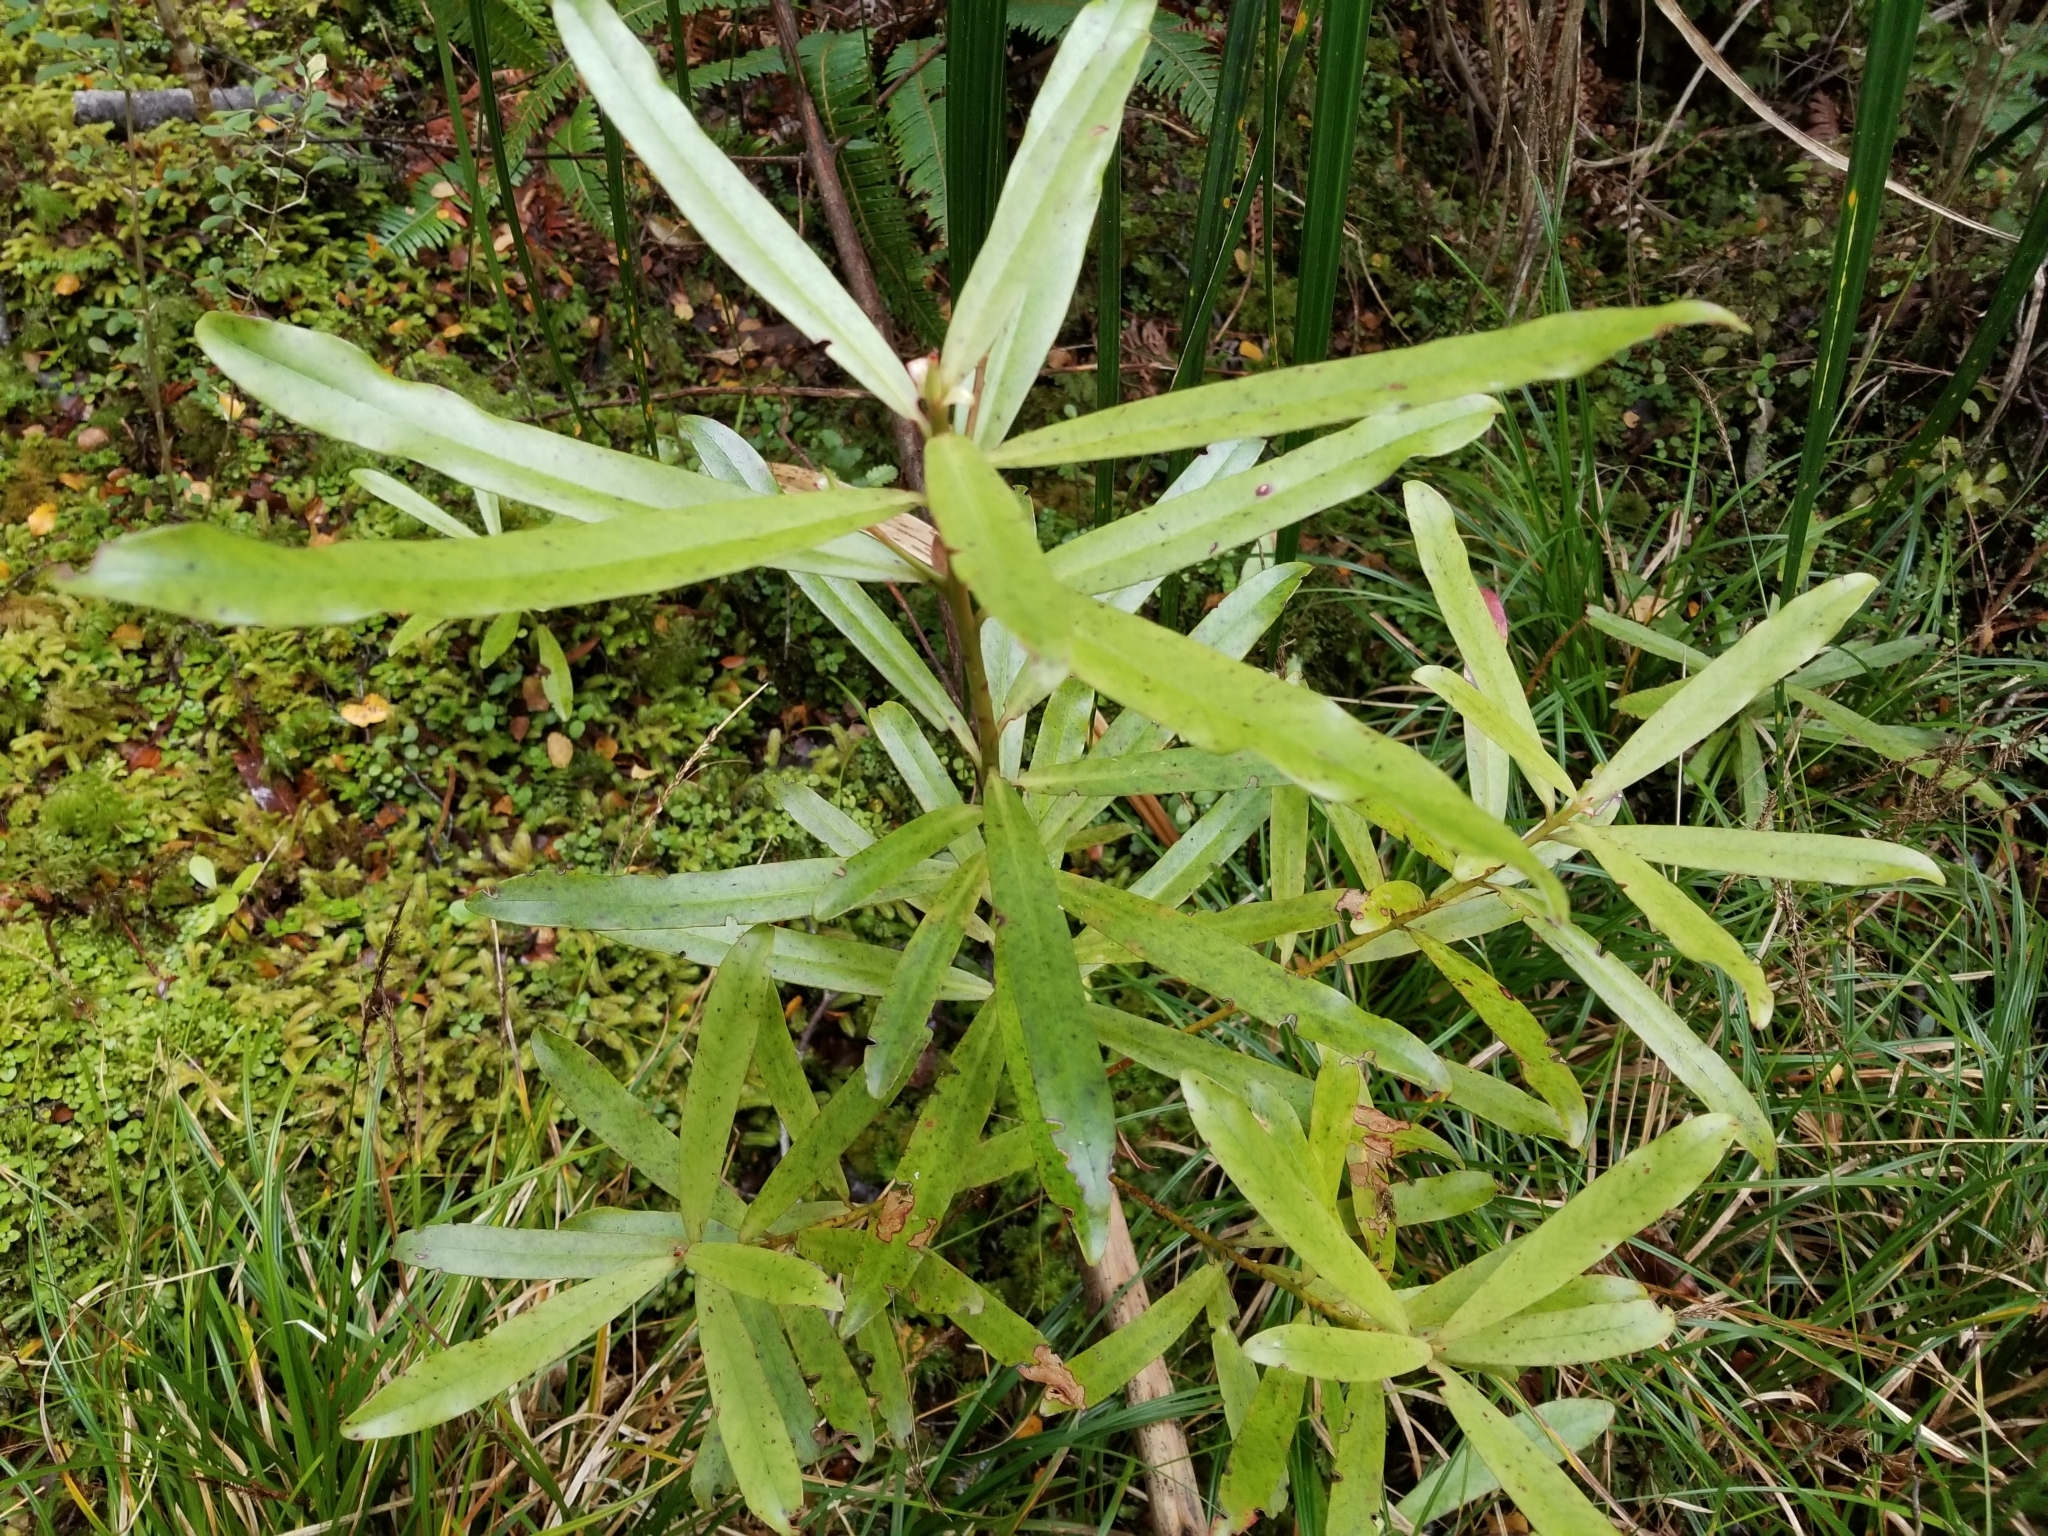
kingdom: Plantae
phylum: Tracheophyta
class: Magnoliopsida
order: Ericales
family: Primulaceae
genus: Myrsine
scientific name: Myrsine salicina
